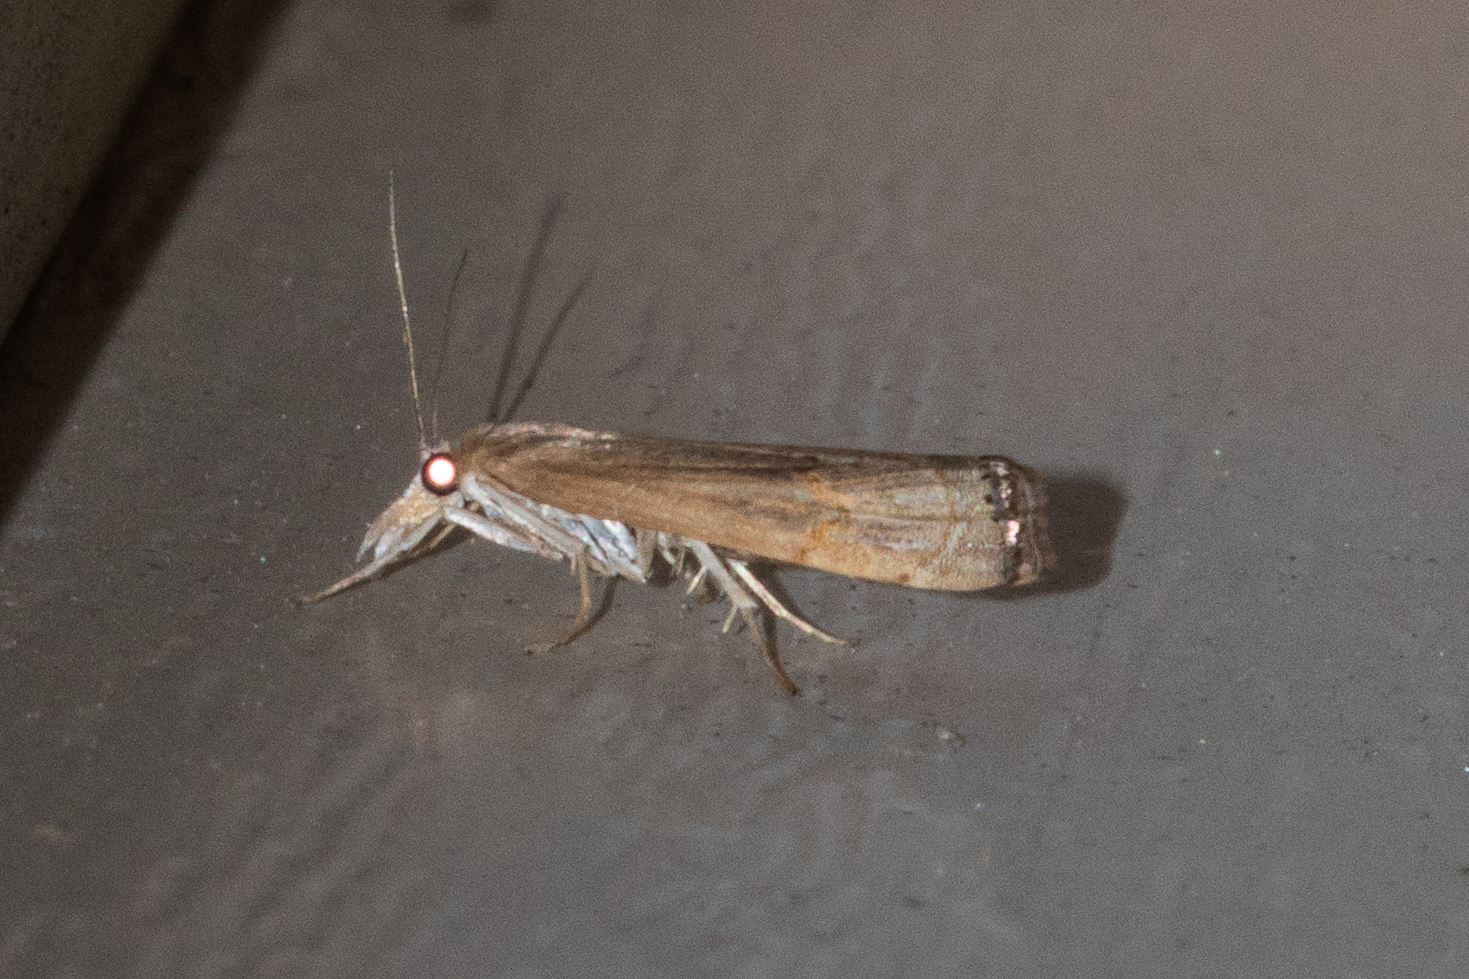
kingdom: Animalia
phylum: Arthropoda
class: Insecta
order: Lepidoptera
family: Crambidae
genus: Parapediasia
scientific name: Parapediasia teterellus
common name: Bluegrass webworm moth
